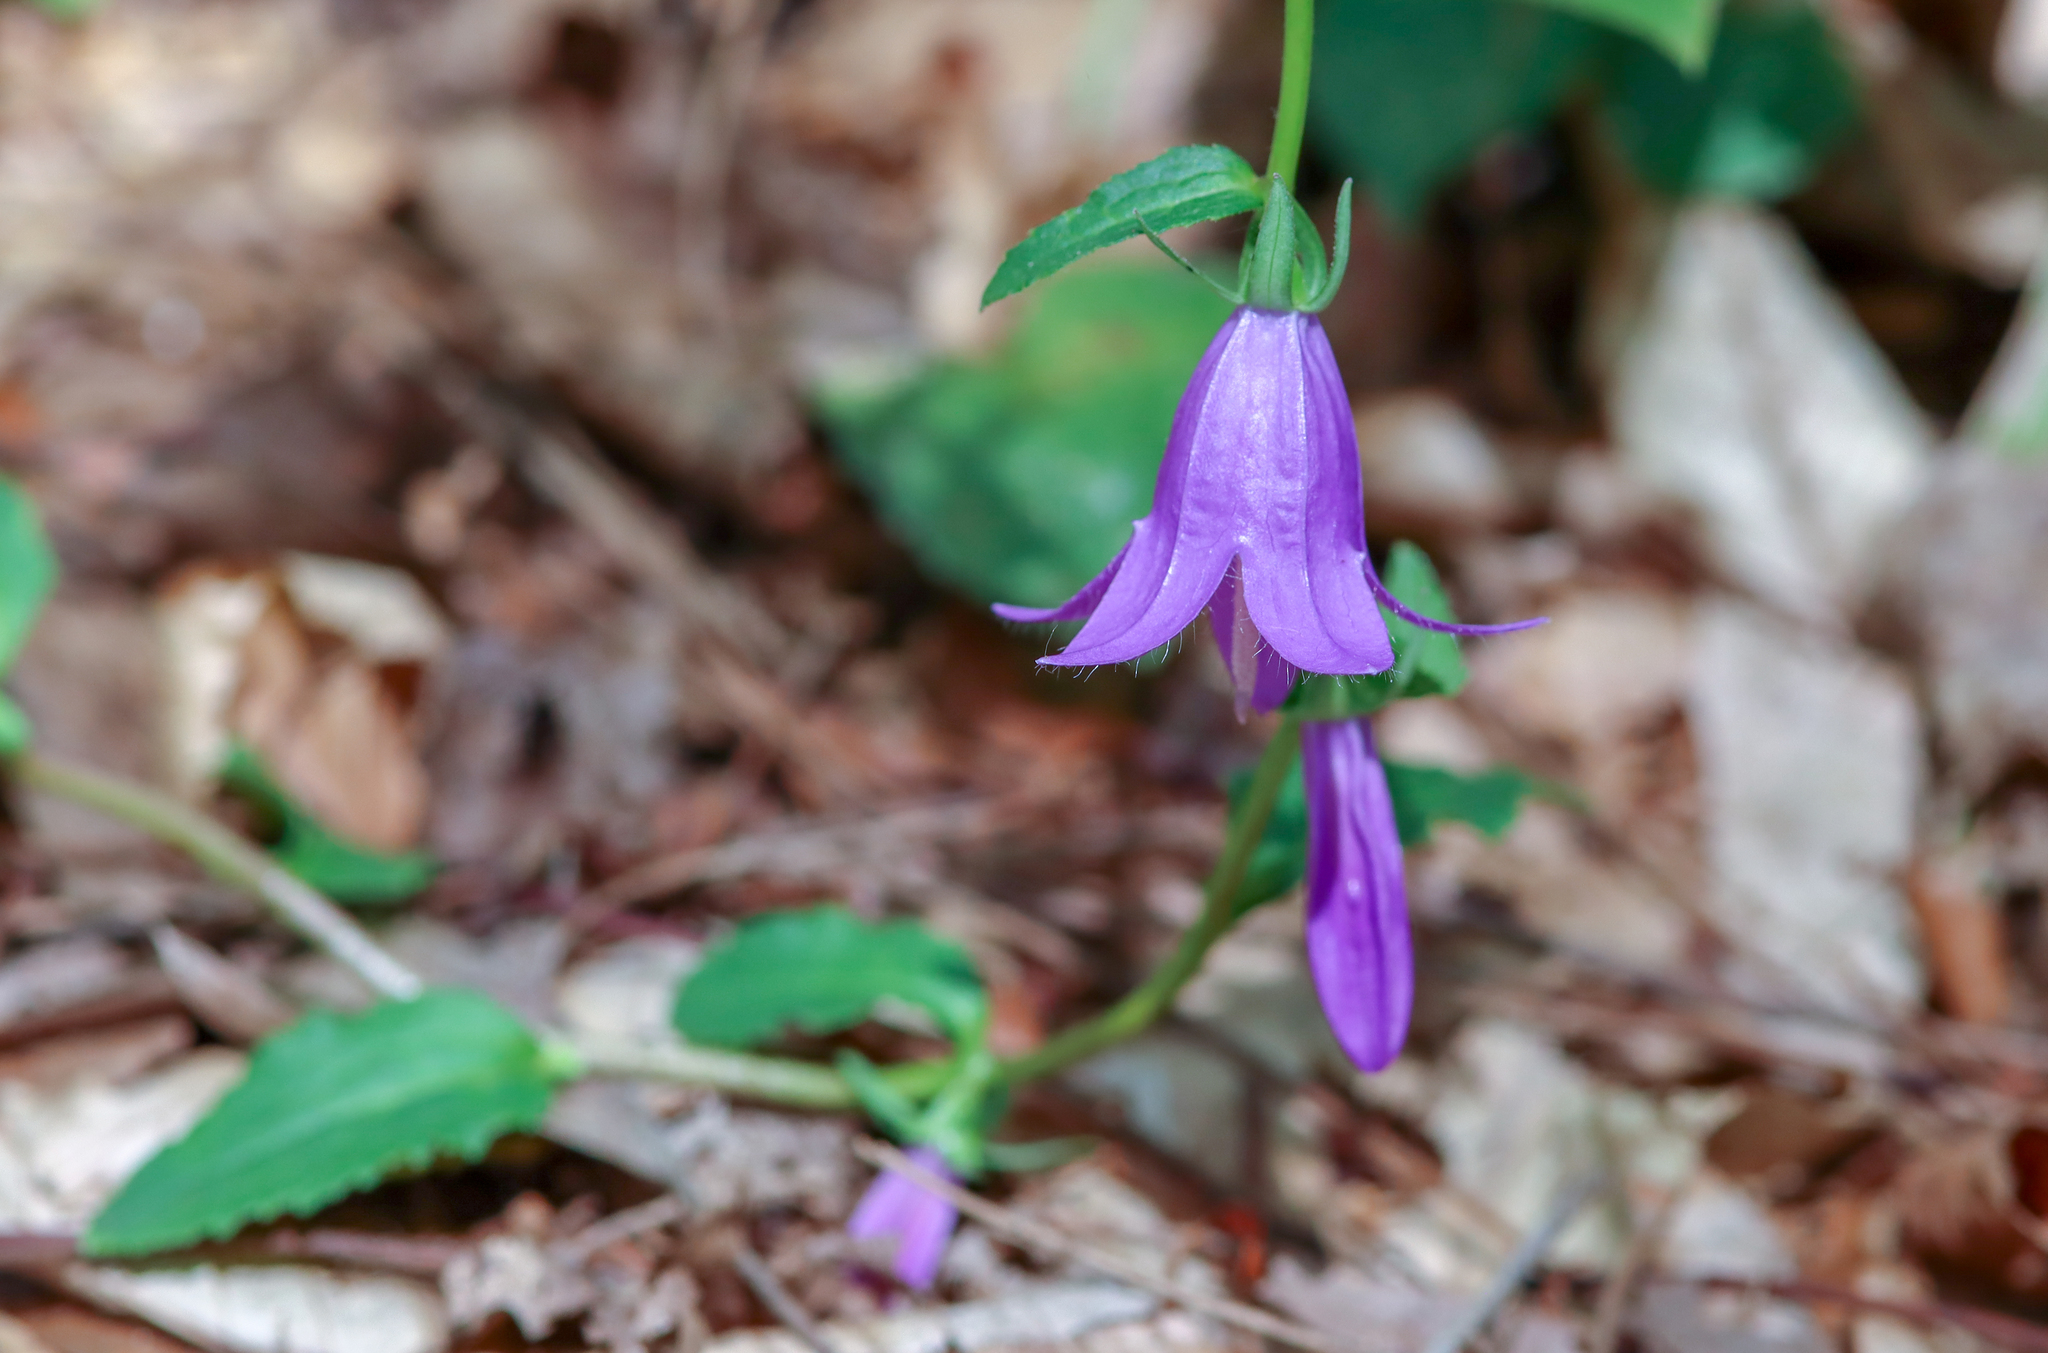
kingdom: Plantae
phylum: Tracheophyta
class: Magnoliopsida
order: Asterales
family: Campanulaceae
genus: Campanula
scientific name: Campanula rapunculoides
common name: Creeping bellflower
